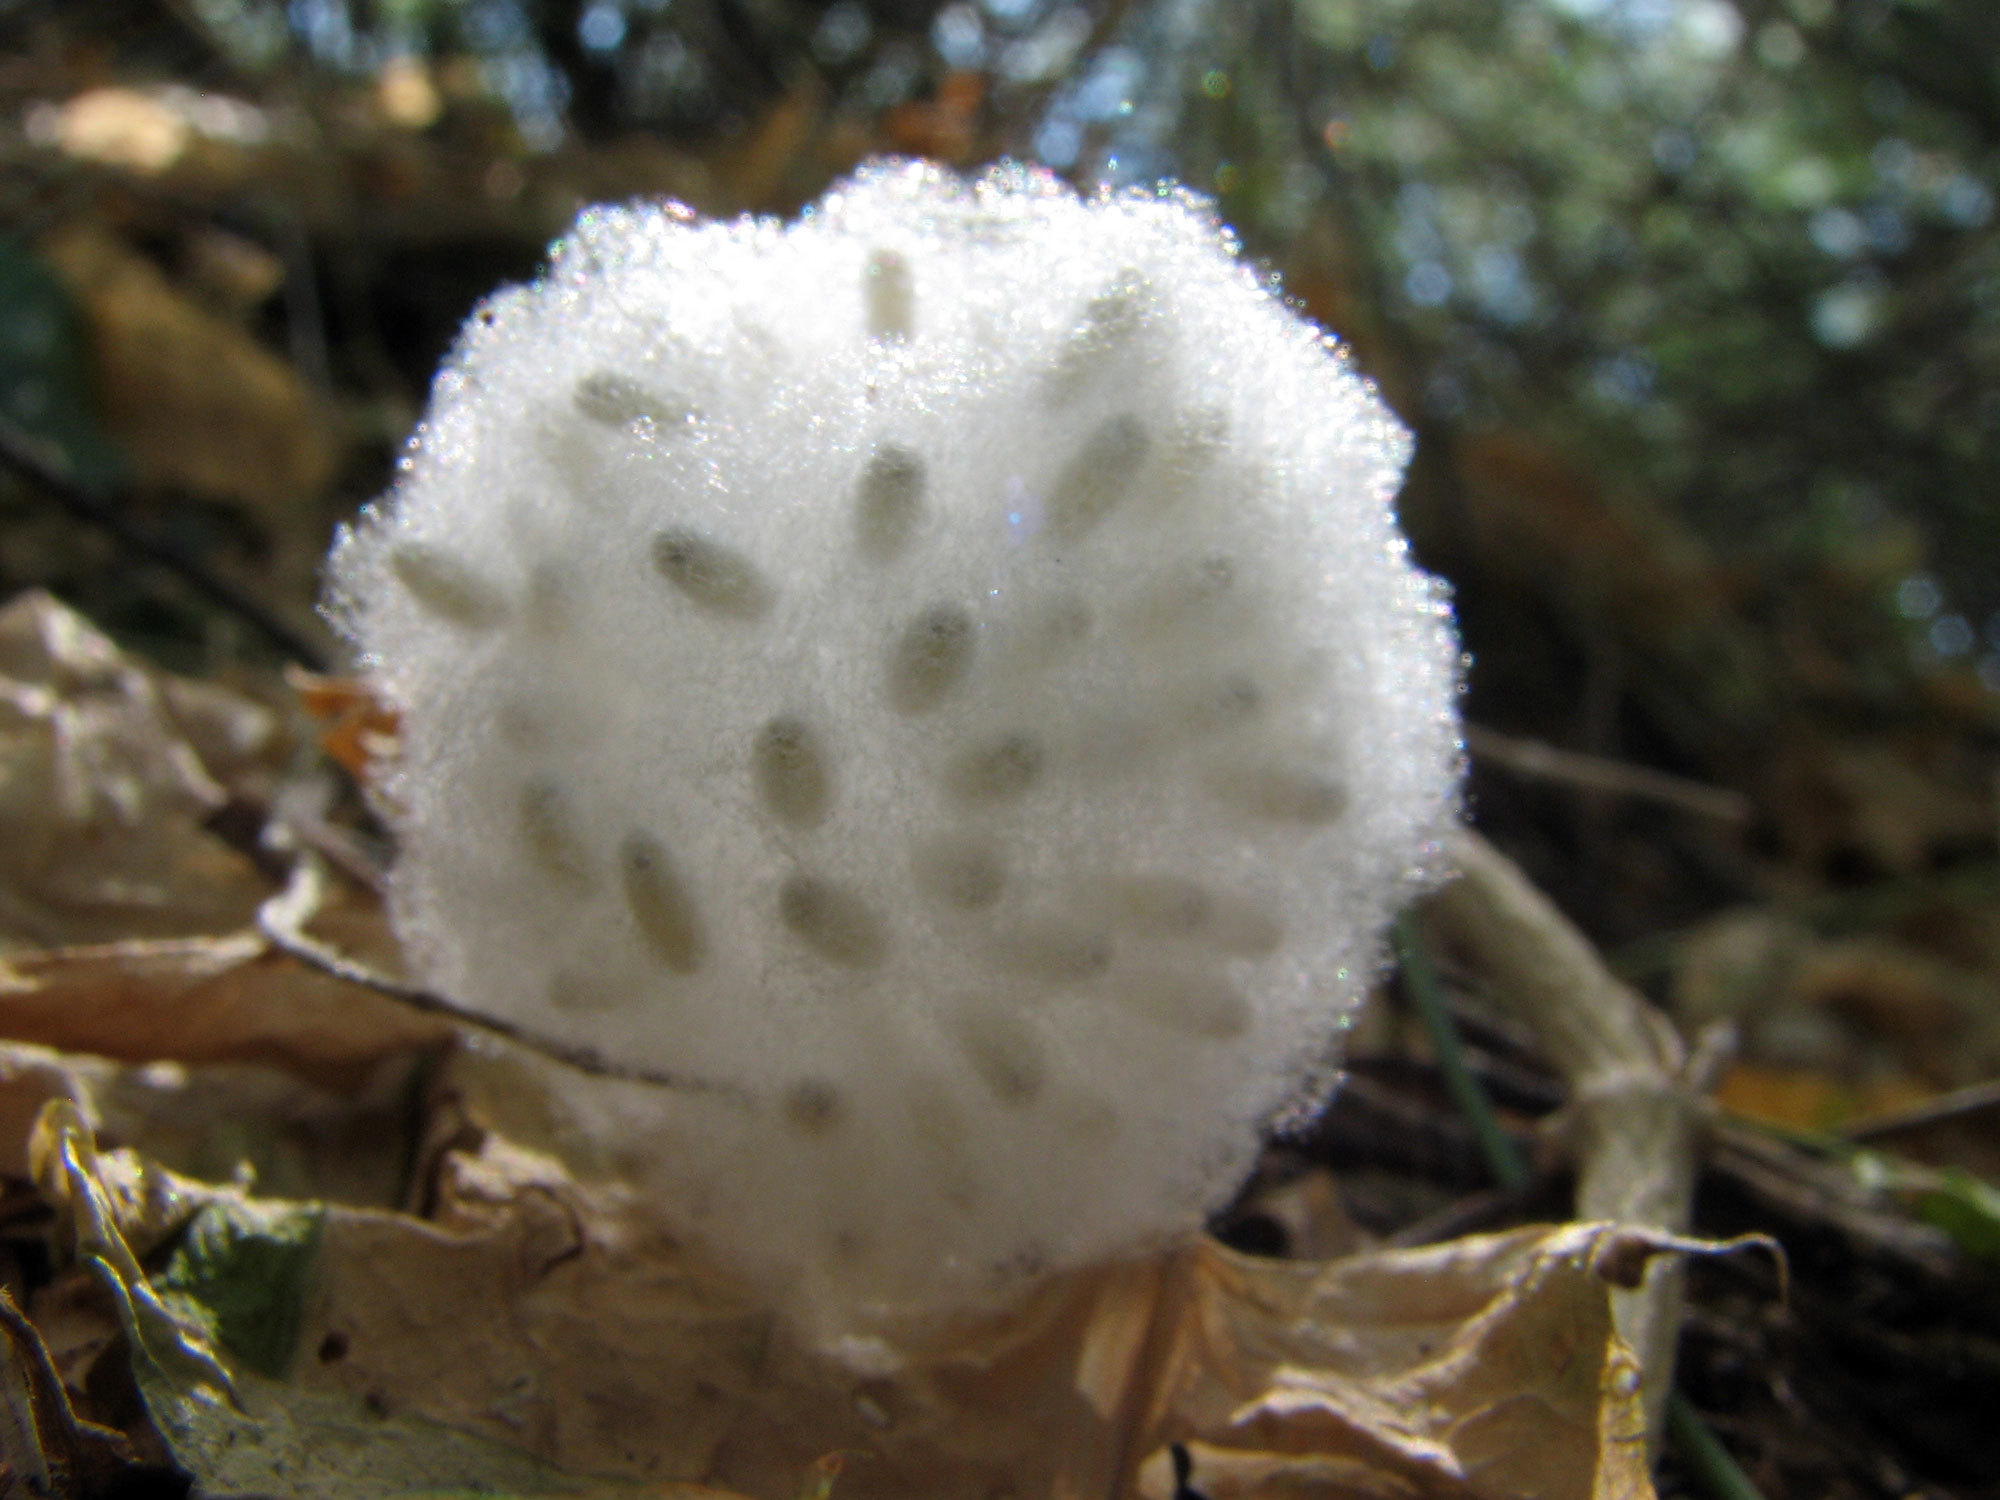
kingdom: Animalia
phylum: Arthropoda
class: Insecta
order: Hymenoptera
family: Braconidae
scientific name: Braconidae
